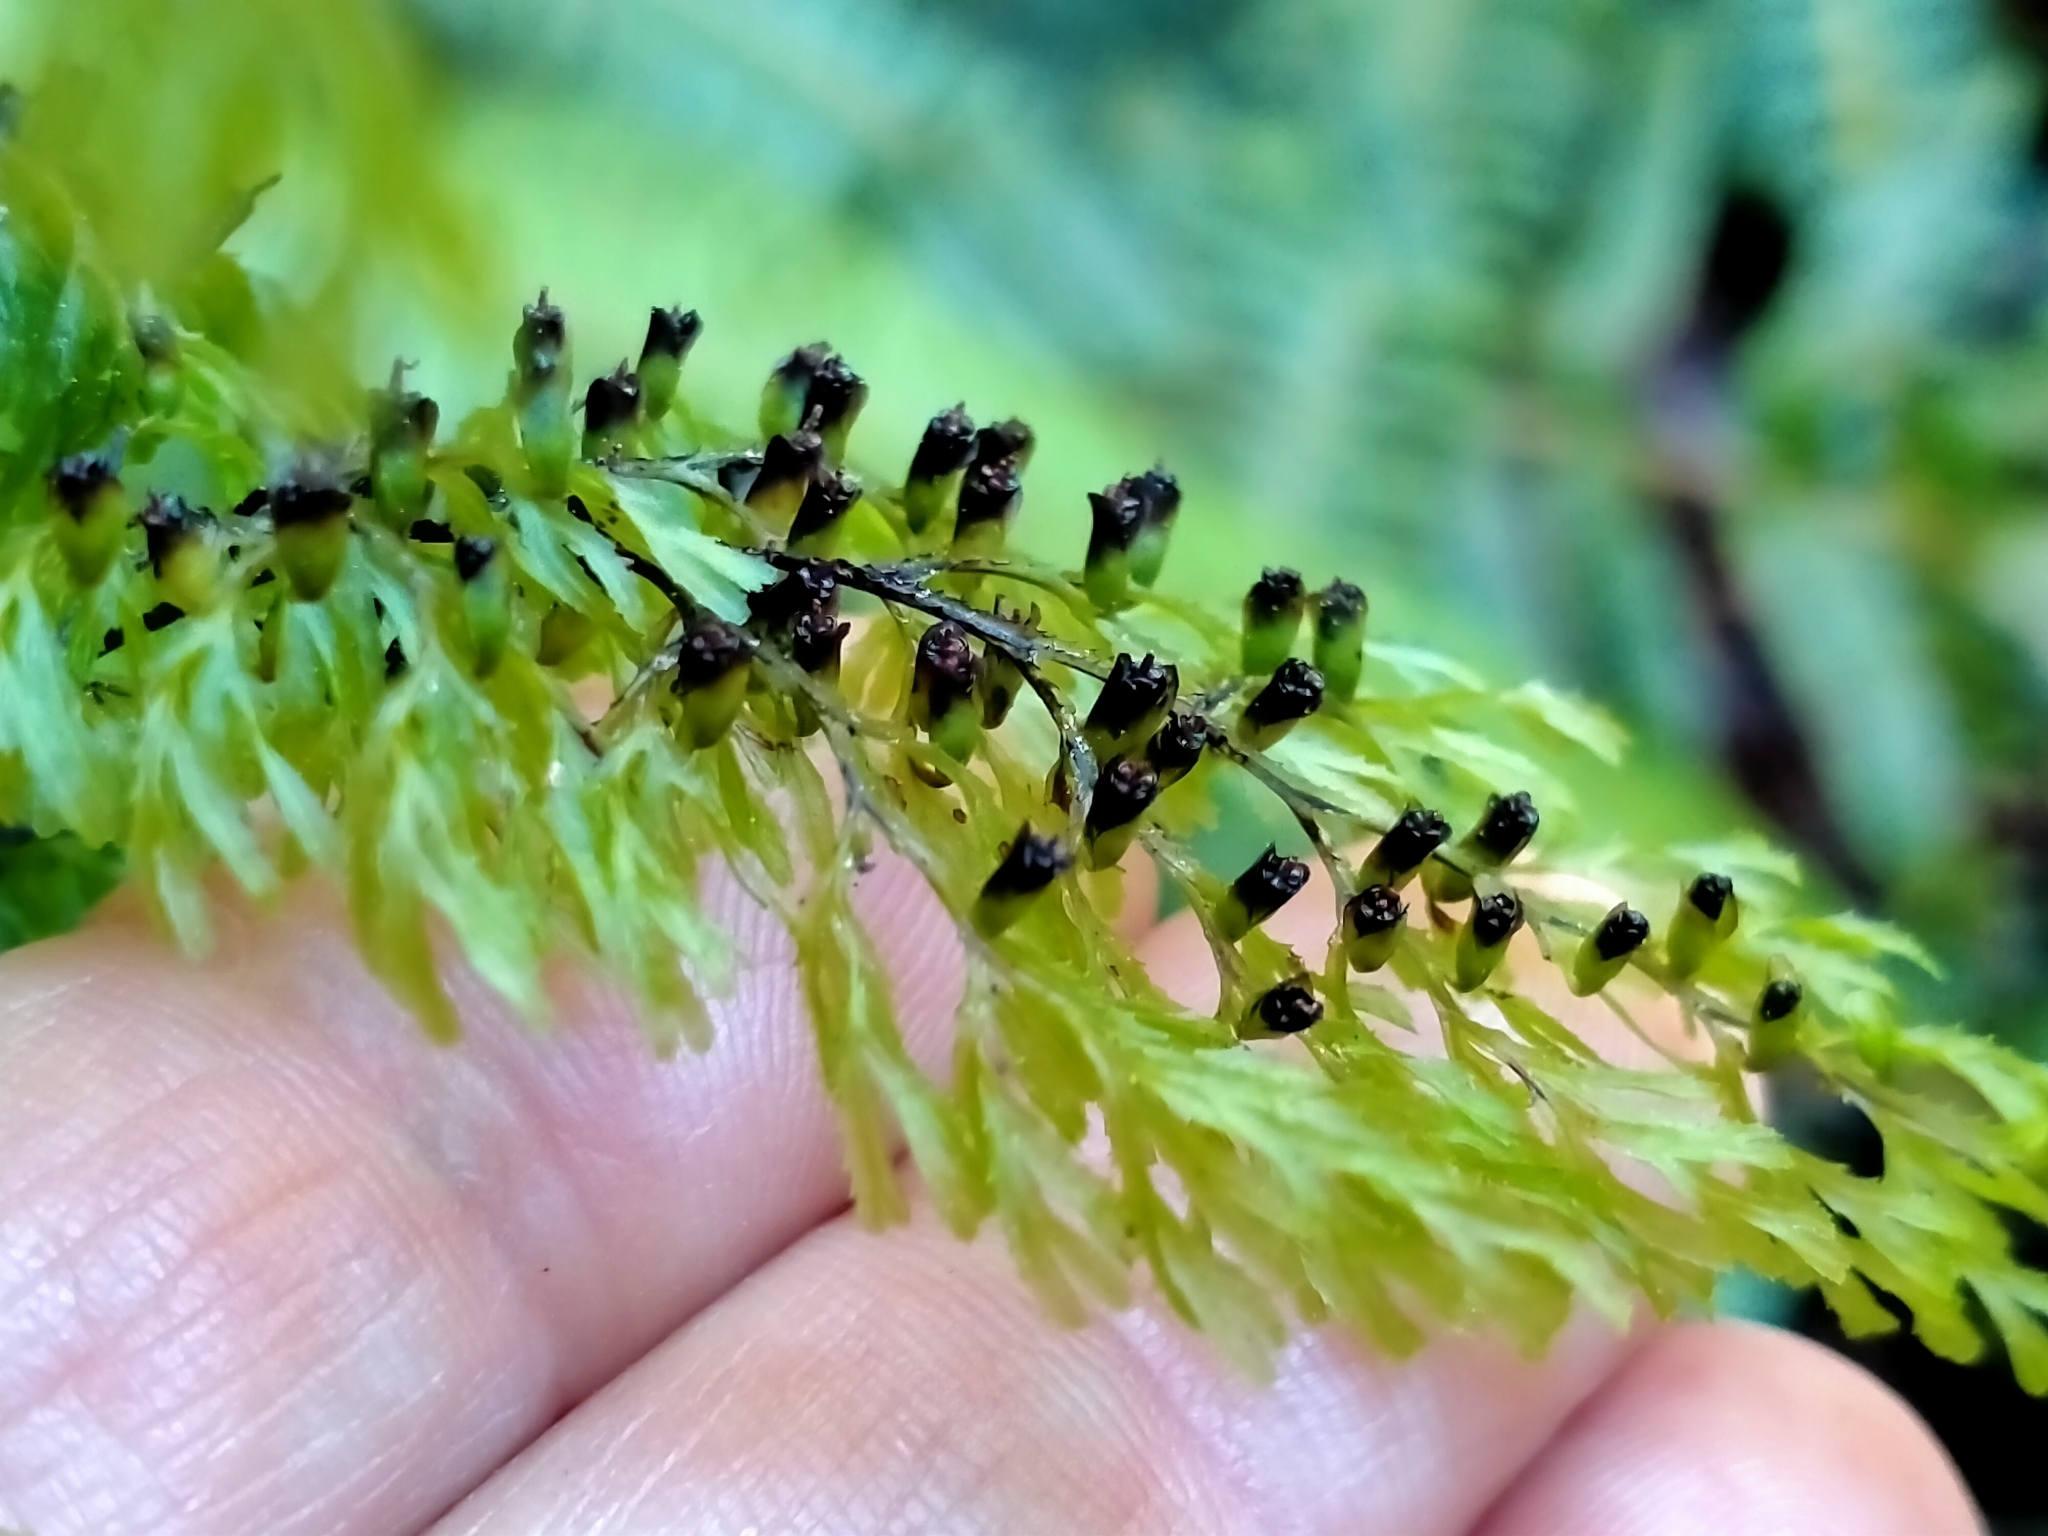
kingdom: Plantae
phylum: Tracheophyta
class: Polypodiopsida
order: Hymenophyllales
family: Hymenophyllaceae
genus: Hymenophyllum
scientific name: Hymenophyllum multifidum
